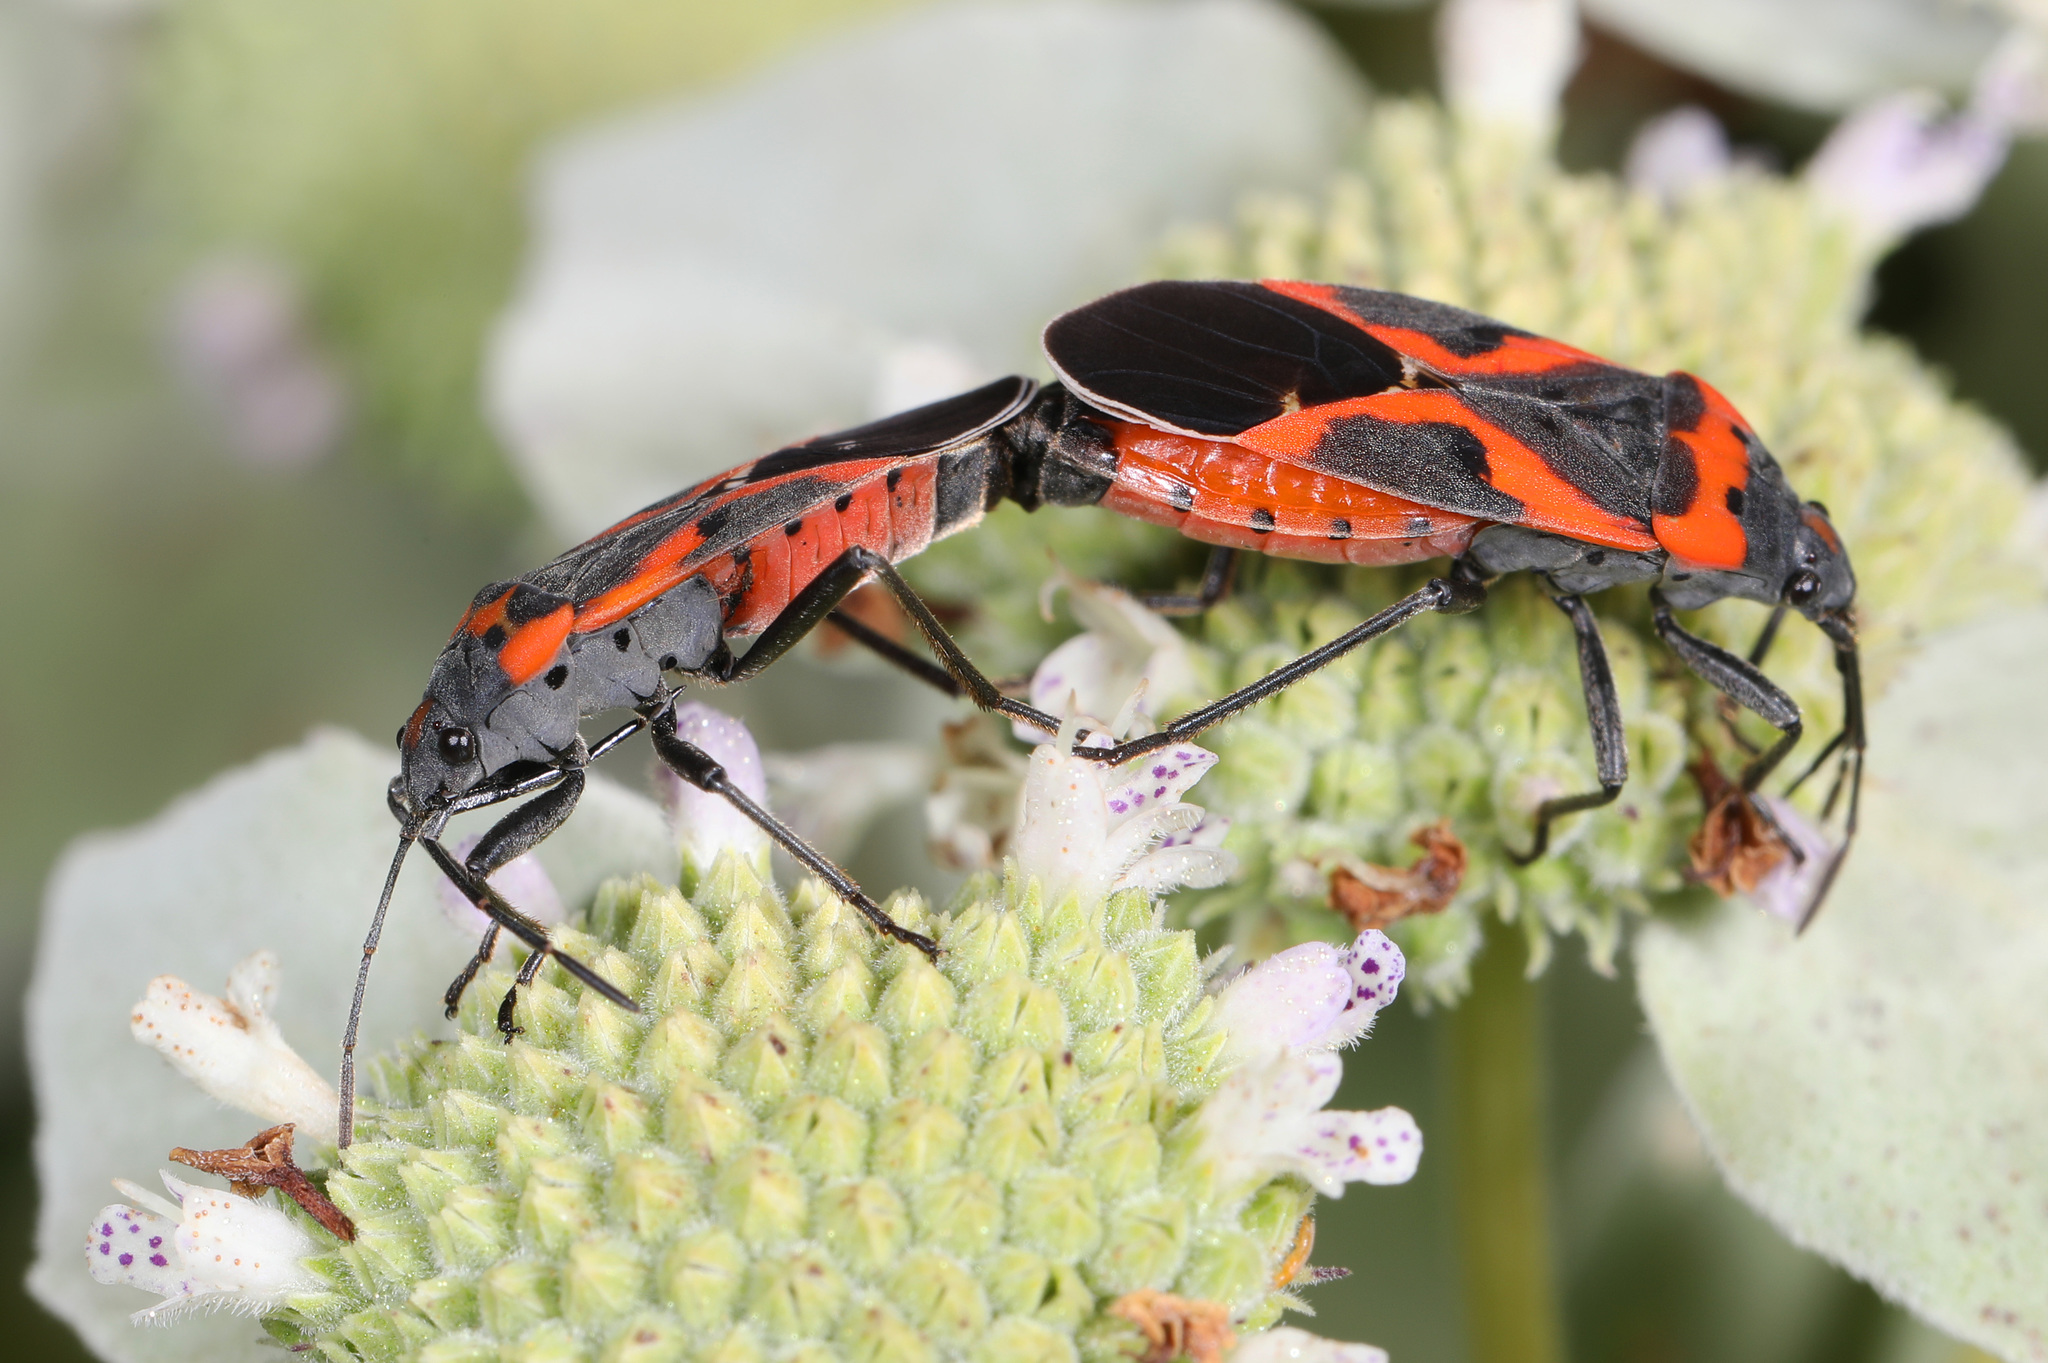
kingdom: Animalia
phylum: Arthropoda
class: Insecta
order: Hemiptera
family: Lygaeidae
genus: Lygaeus
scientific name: Lygaeus kalmii
